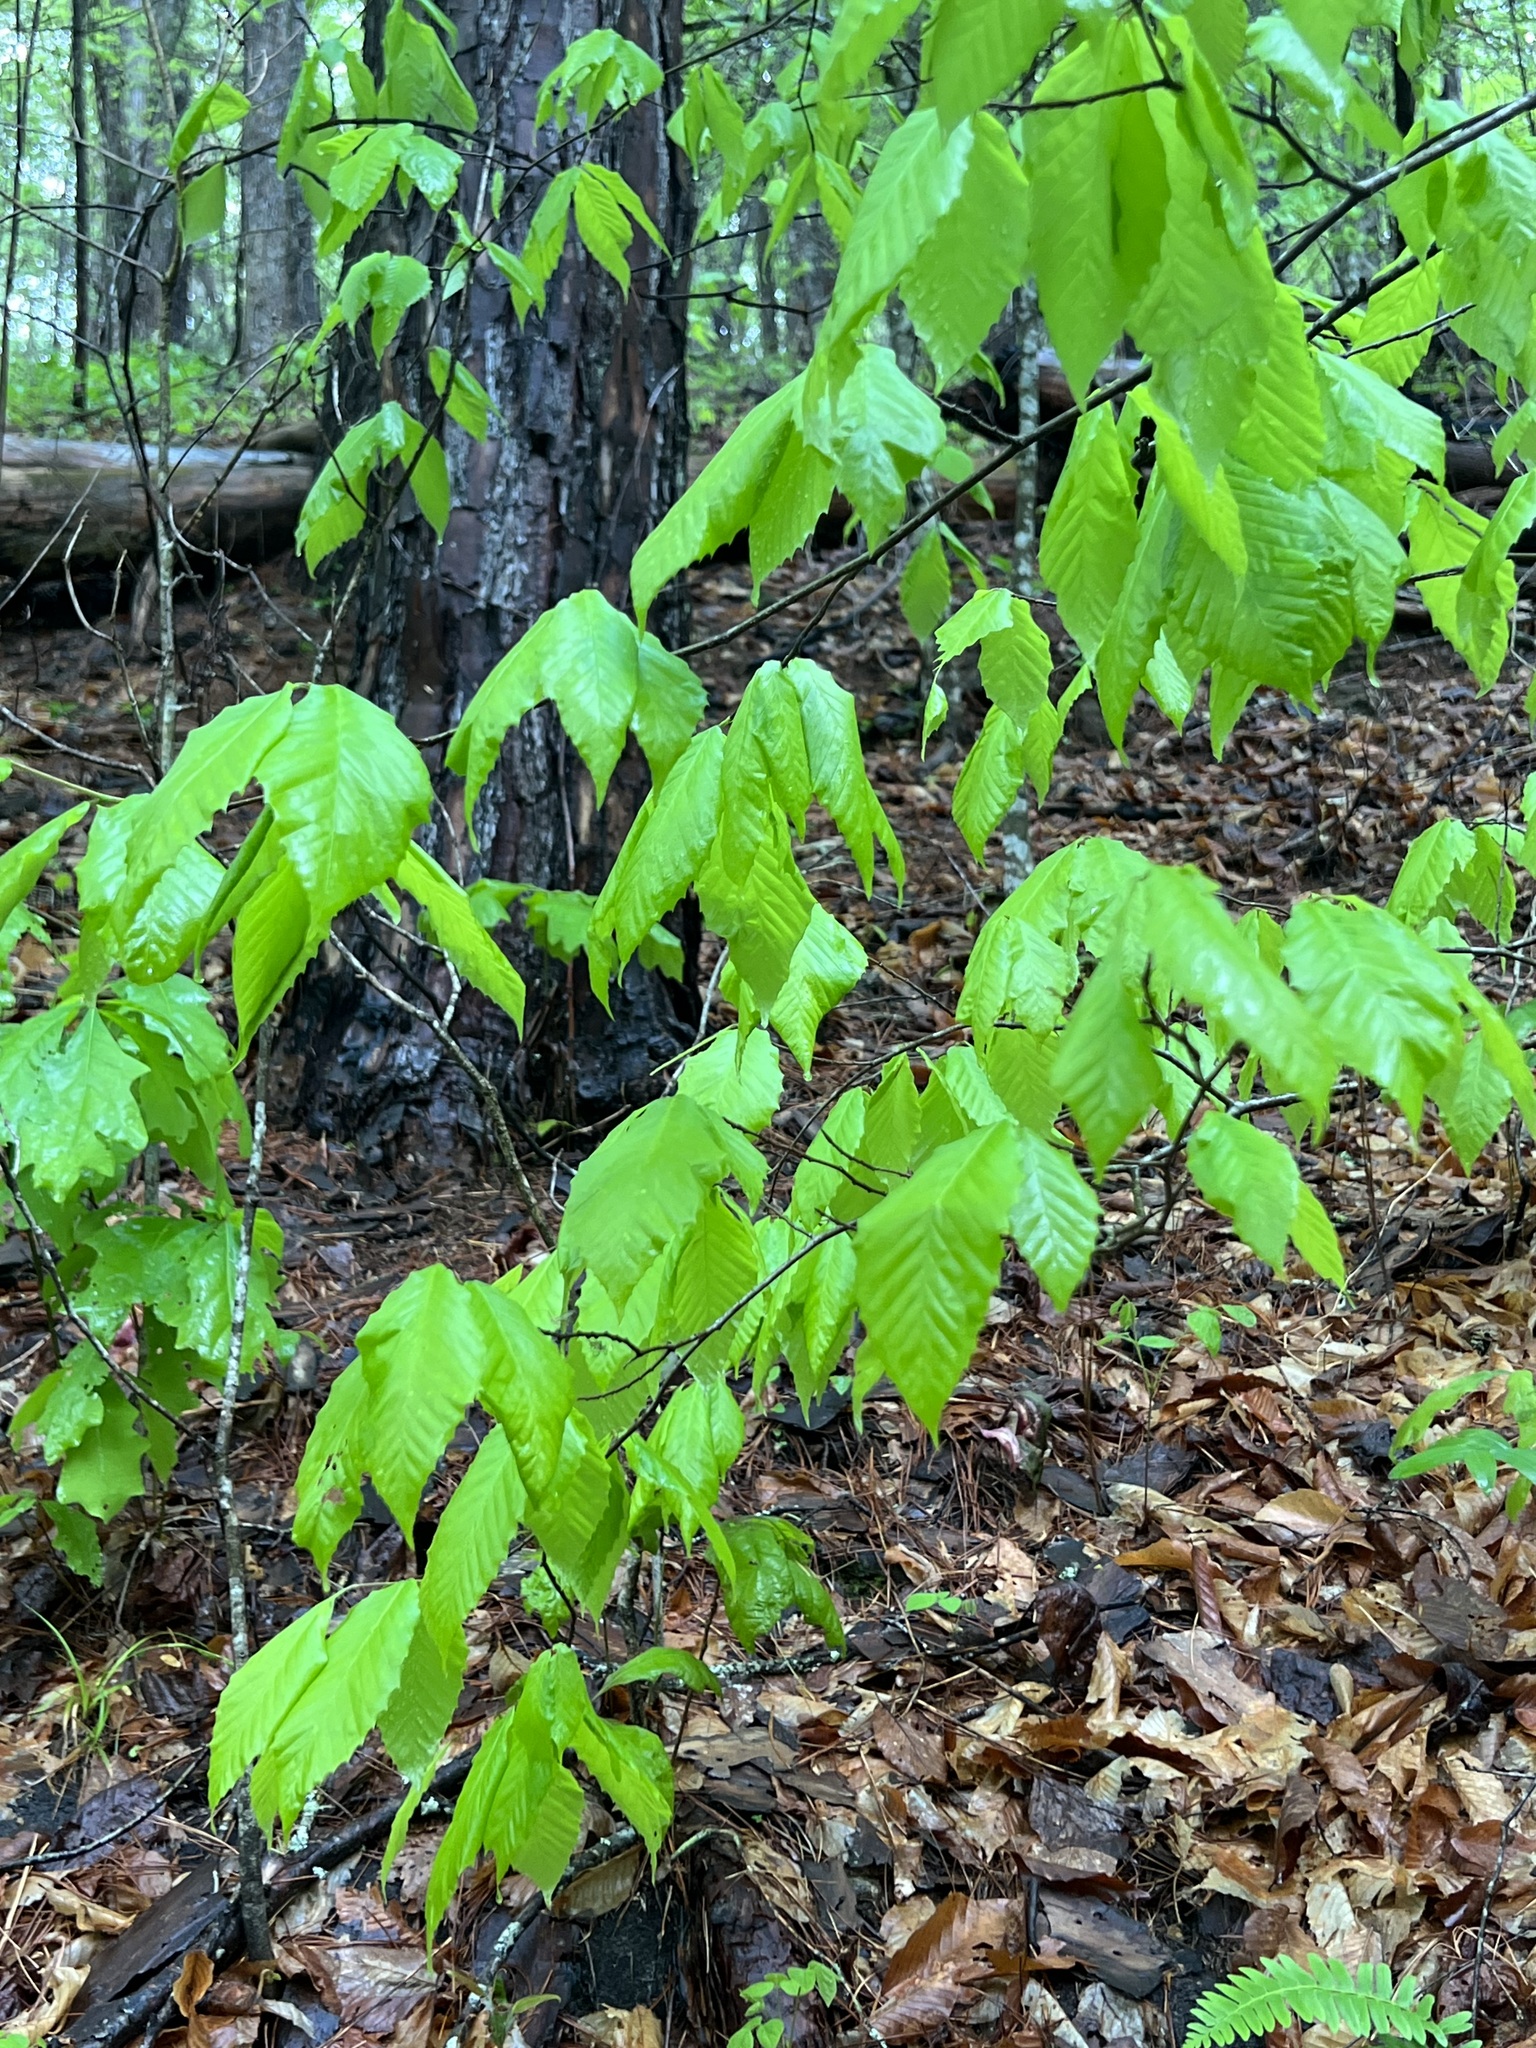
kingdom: Plantae
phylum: Tracheophyta
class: Magnoliopsida
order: Fagales
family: Fagaceae
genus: Fagus
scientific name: Fagus grandifolia
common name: American beech
